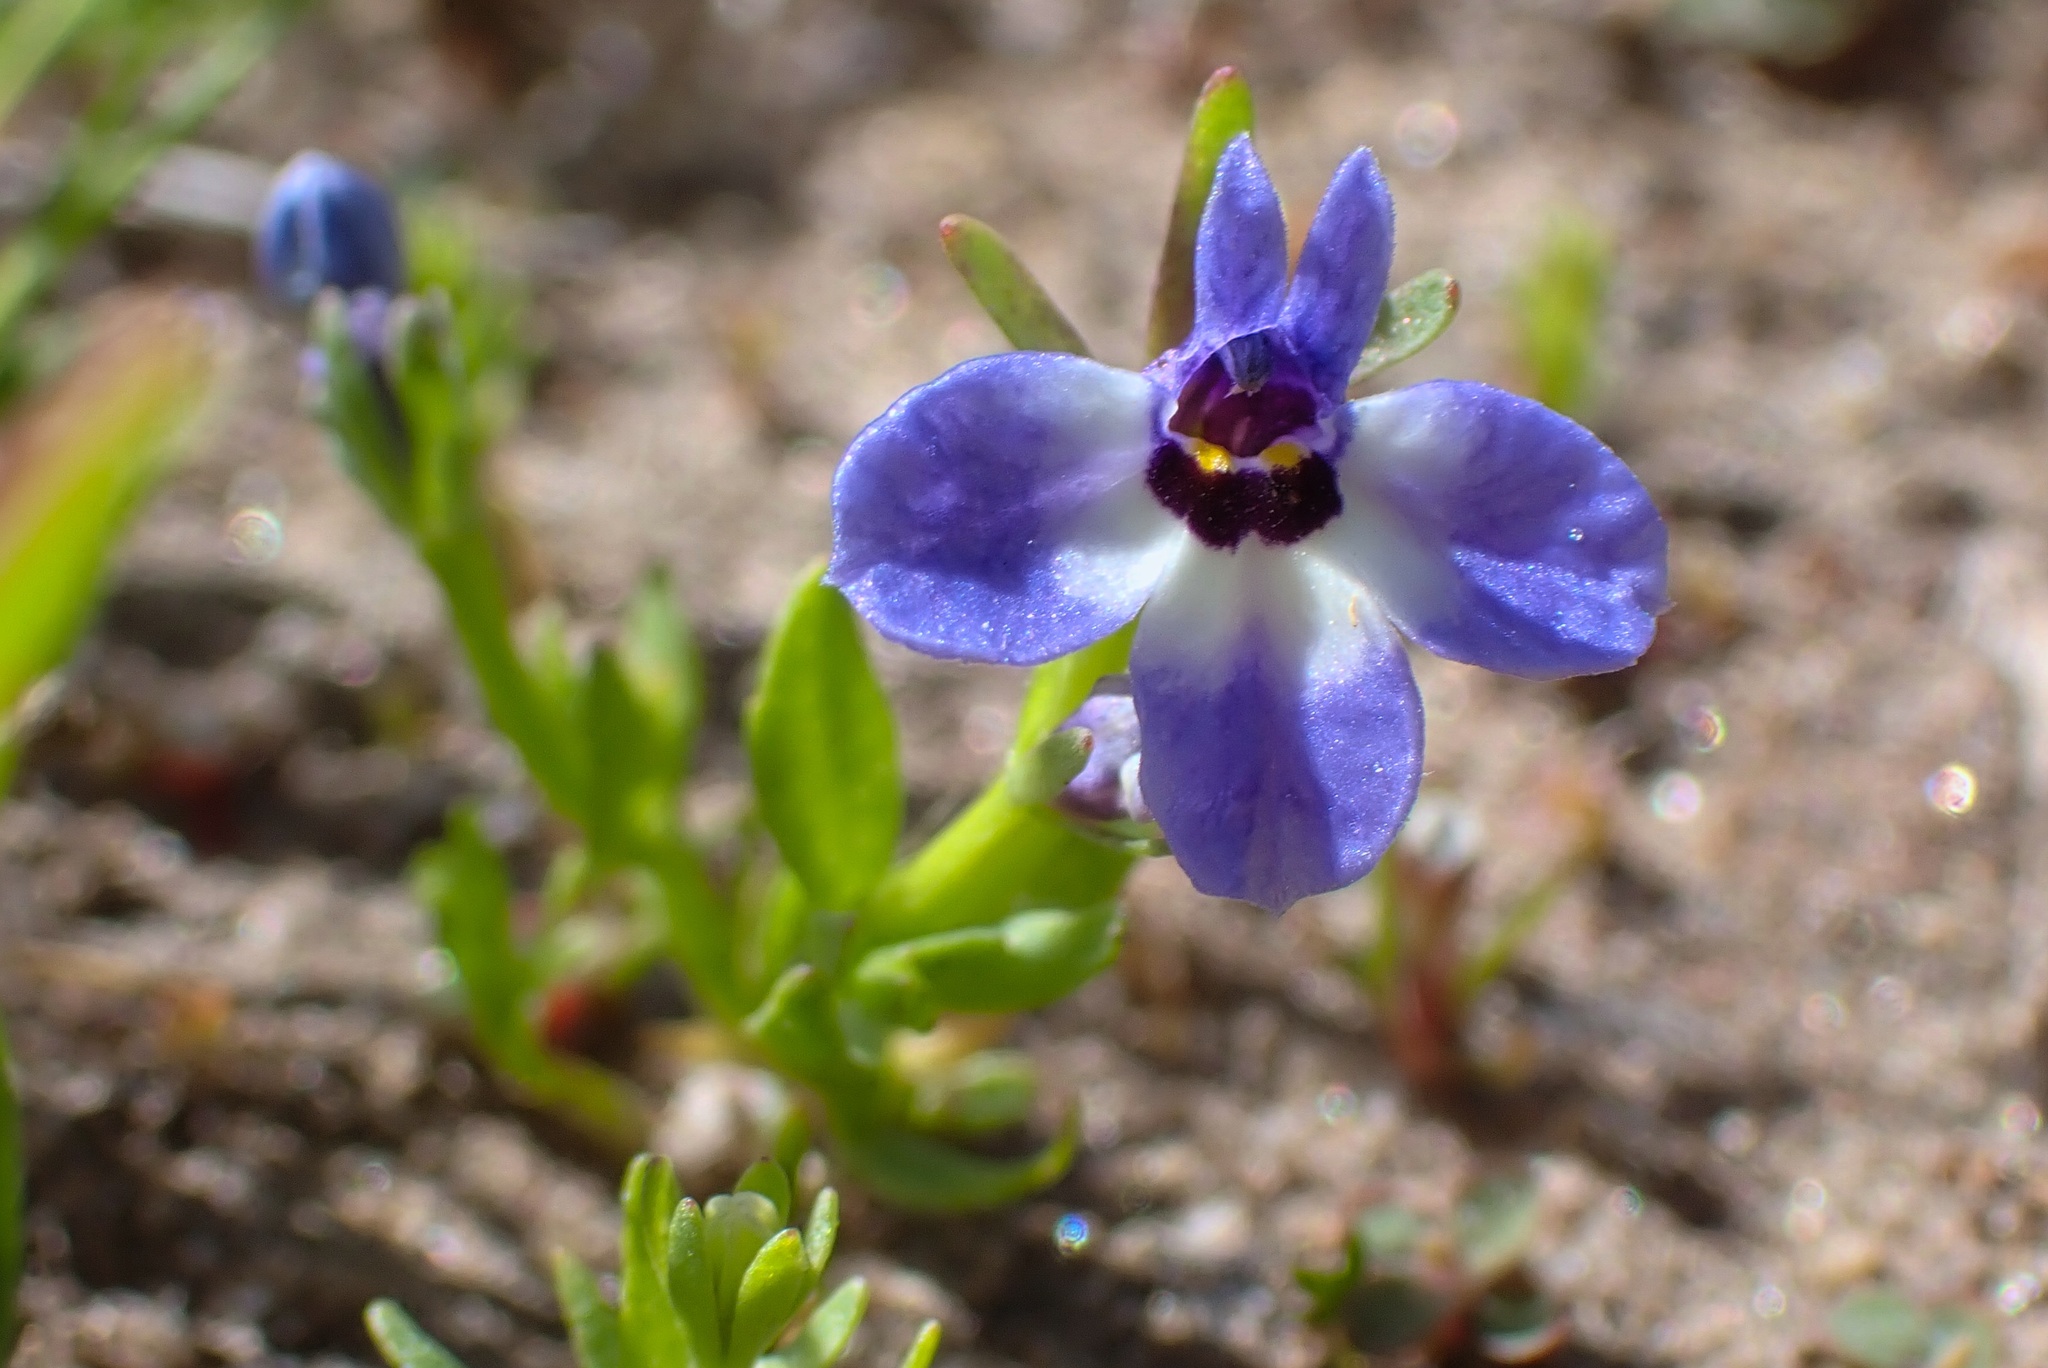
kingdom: Plantae
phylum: Tracheophyta
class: Magnoliopsida
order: Asterales
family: Campanulaceae
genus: Downingia
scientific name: Downingia concolor
